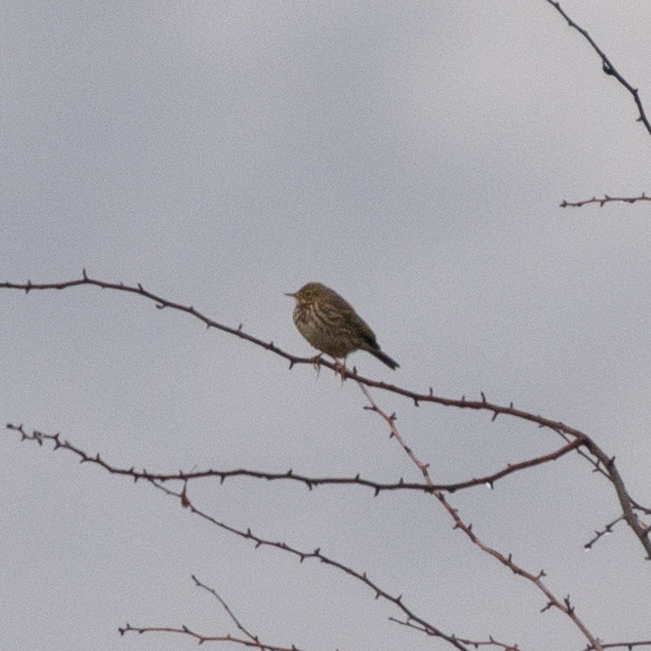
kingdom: Animalia
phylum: Chordata
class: Aves
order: Passeriformes
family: Motacillidae
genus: Anthus
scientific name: Anthus pratensis
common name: Meadow pipit
